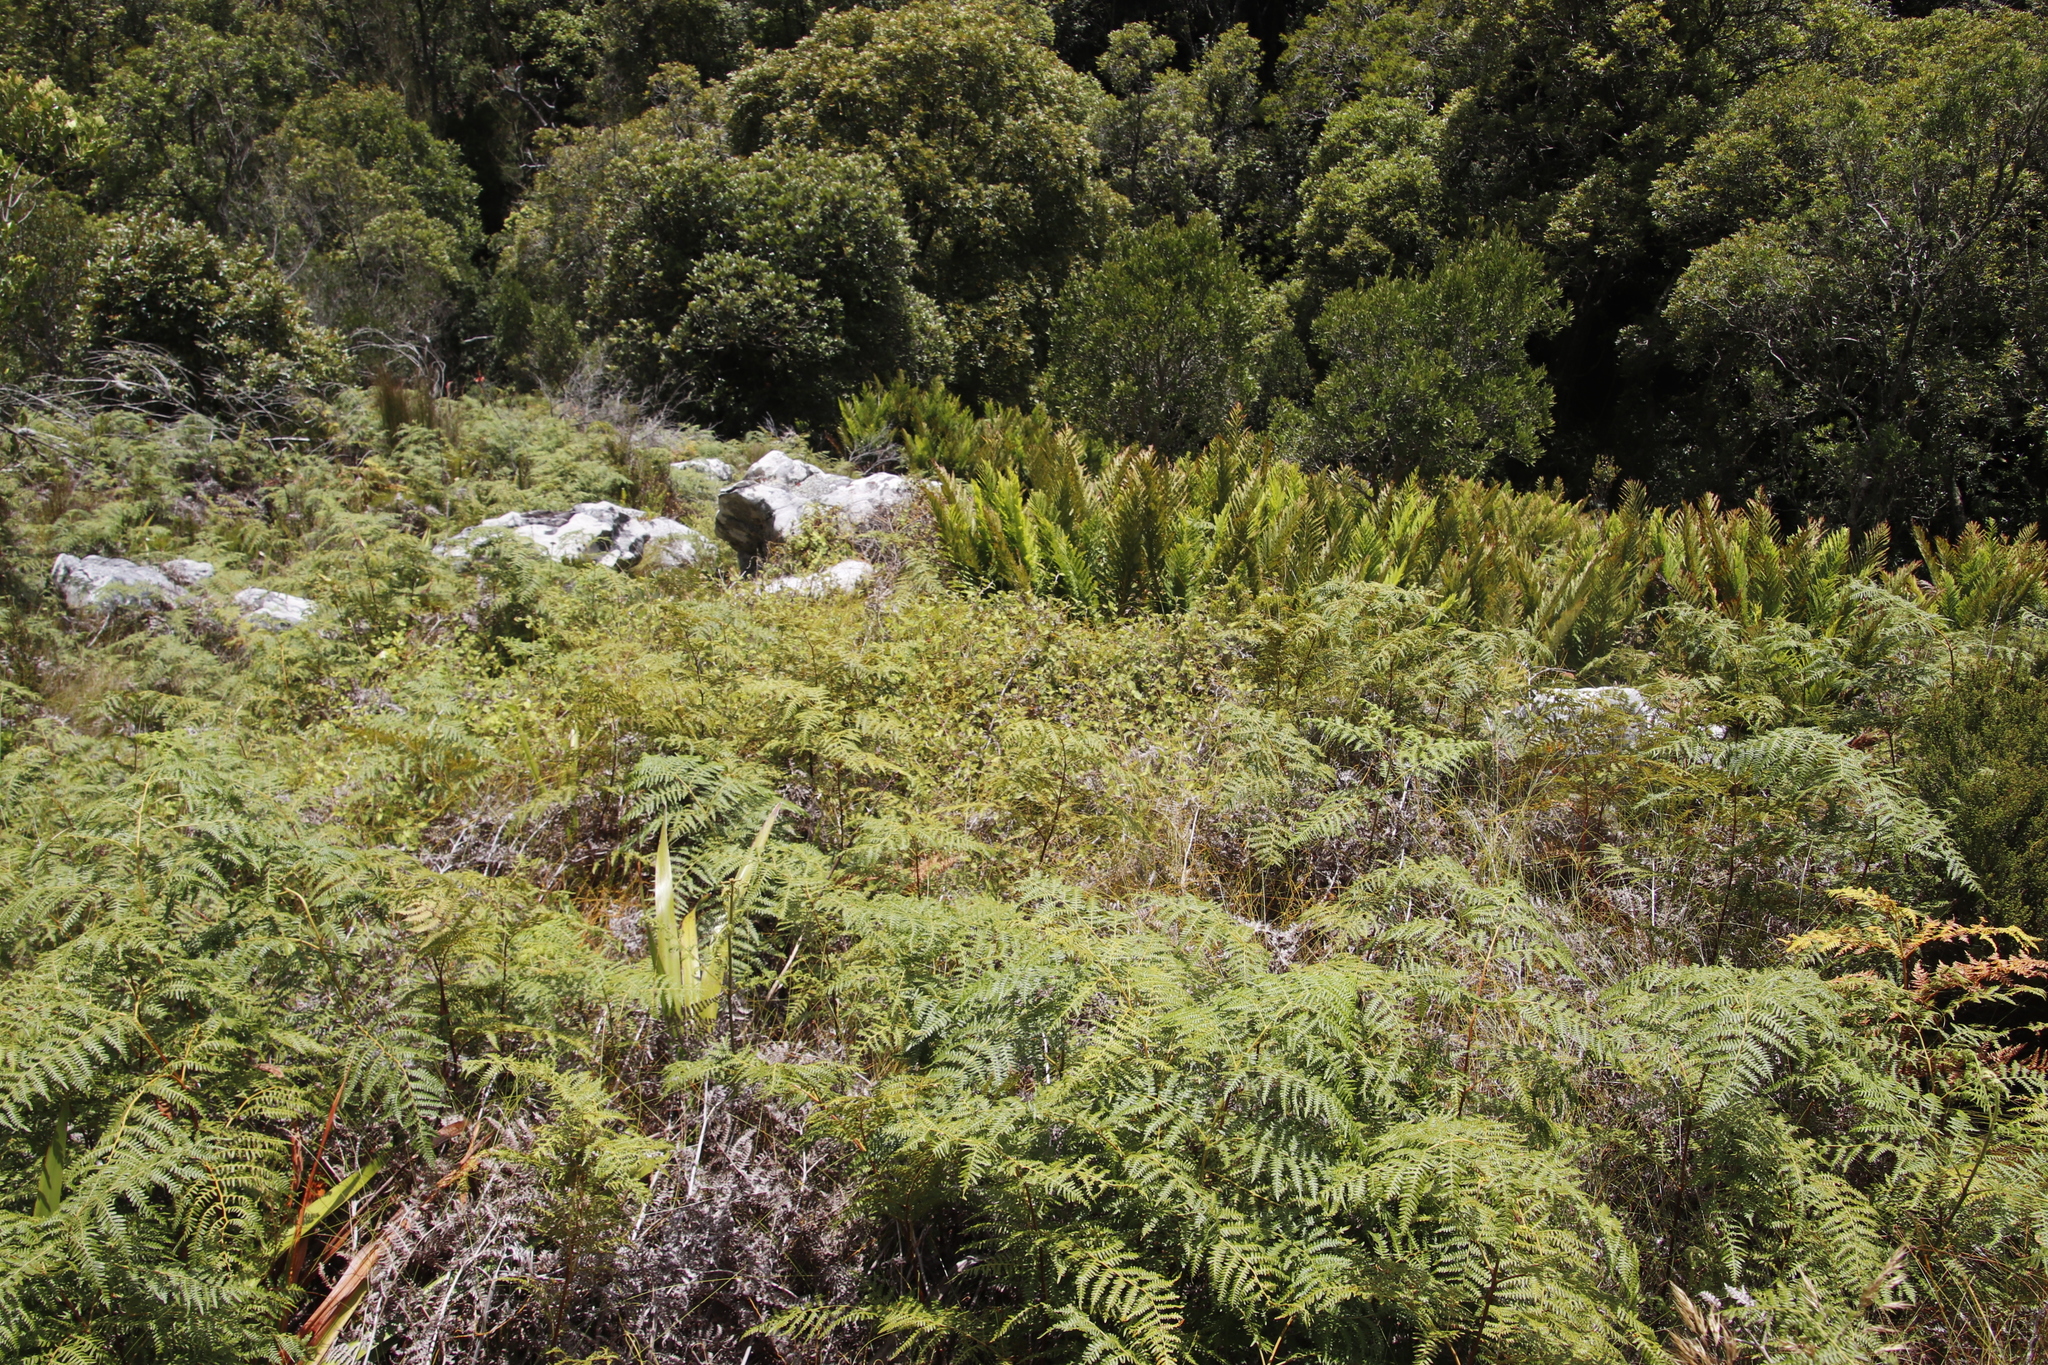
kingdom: Plantae
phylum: Tracheophyta
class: Polypodiopsida
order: Osmundales
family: Osmundaceae
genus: Todea
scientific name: Todea barbara
